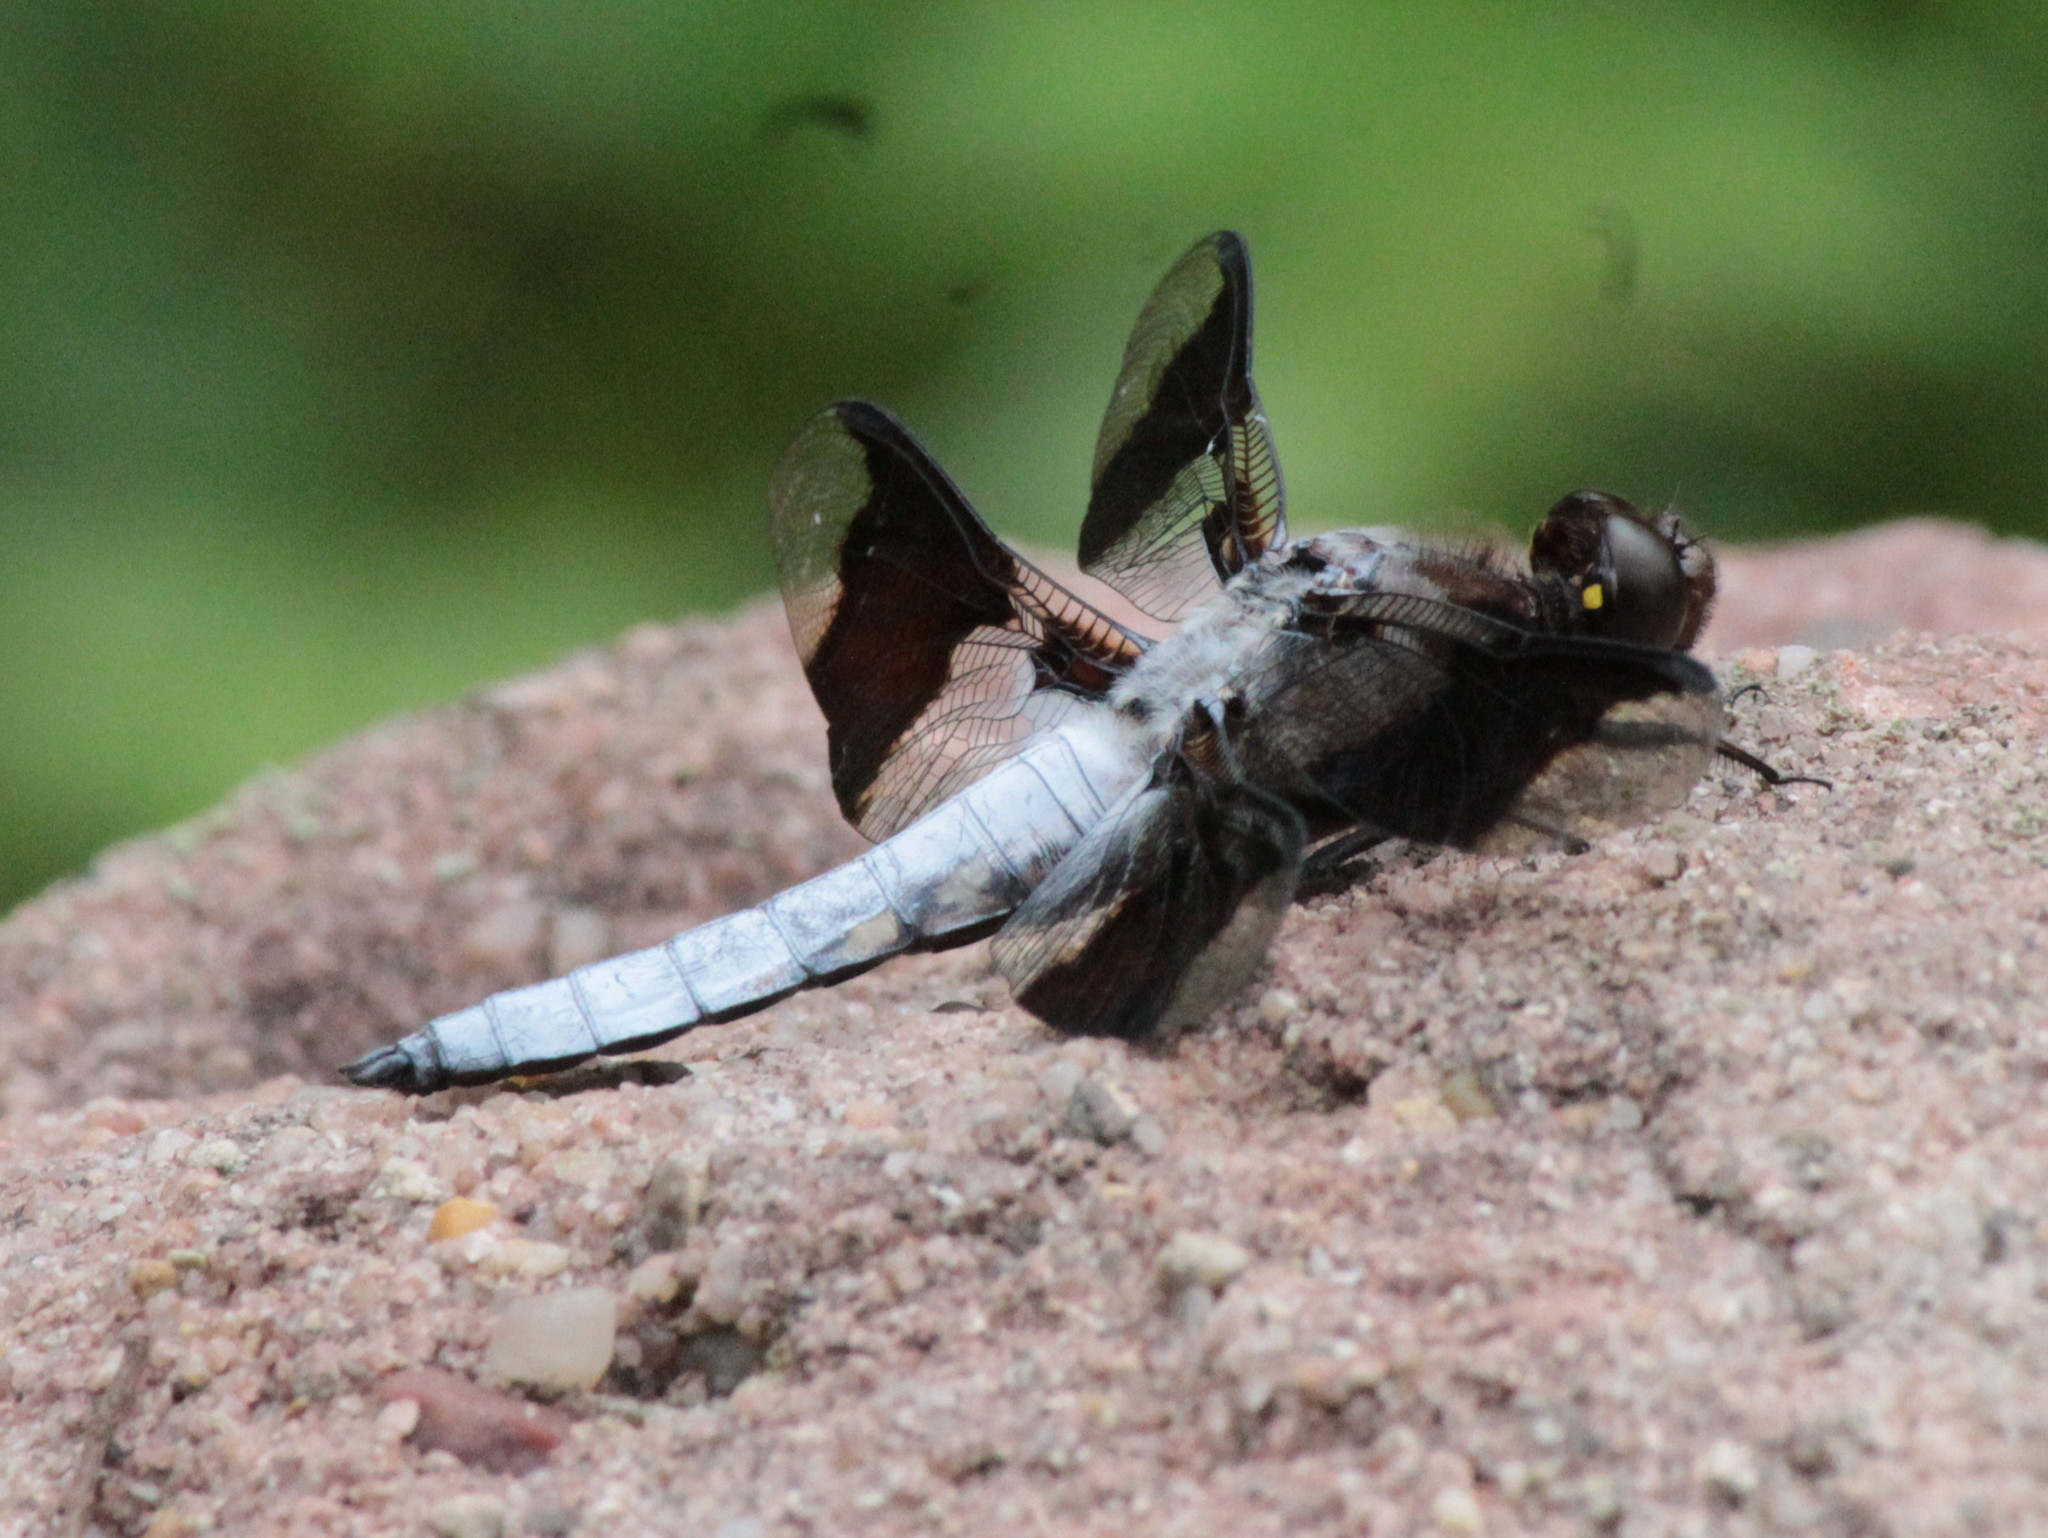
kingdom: Animalia
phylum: Arthropoda
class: Insecta
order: Odonata
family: Libellulidae
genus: Plathemis
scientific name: Plathemis lydia
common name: Common whitetail
